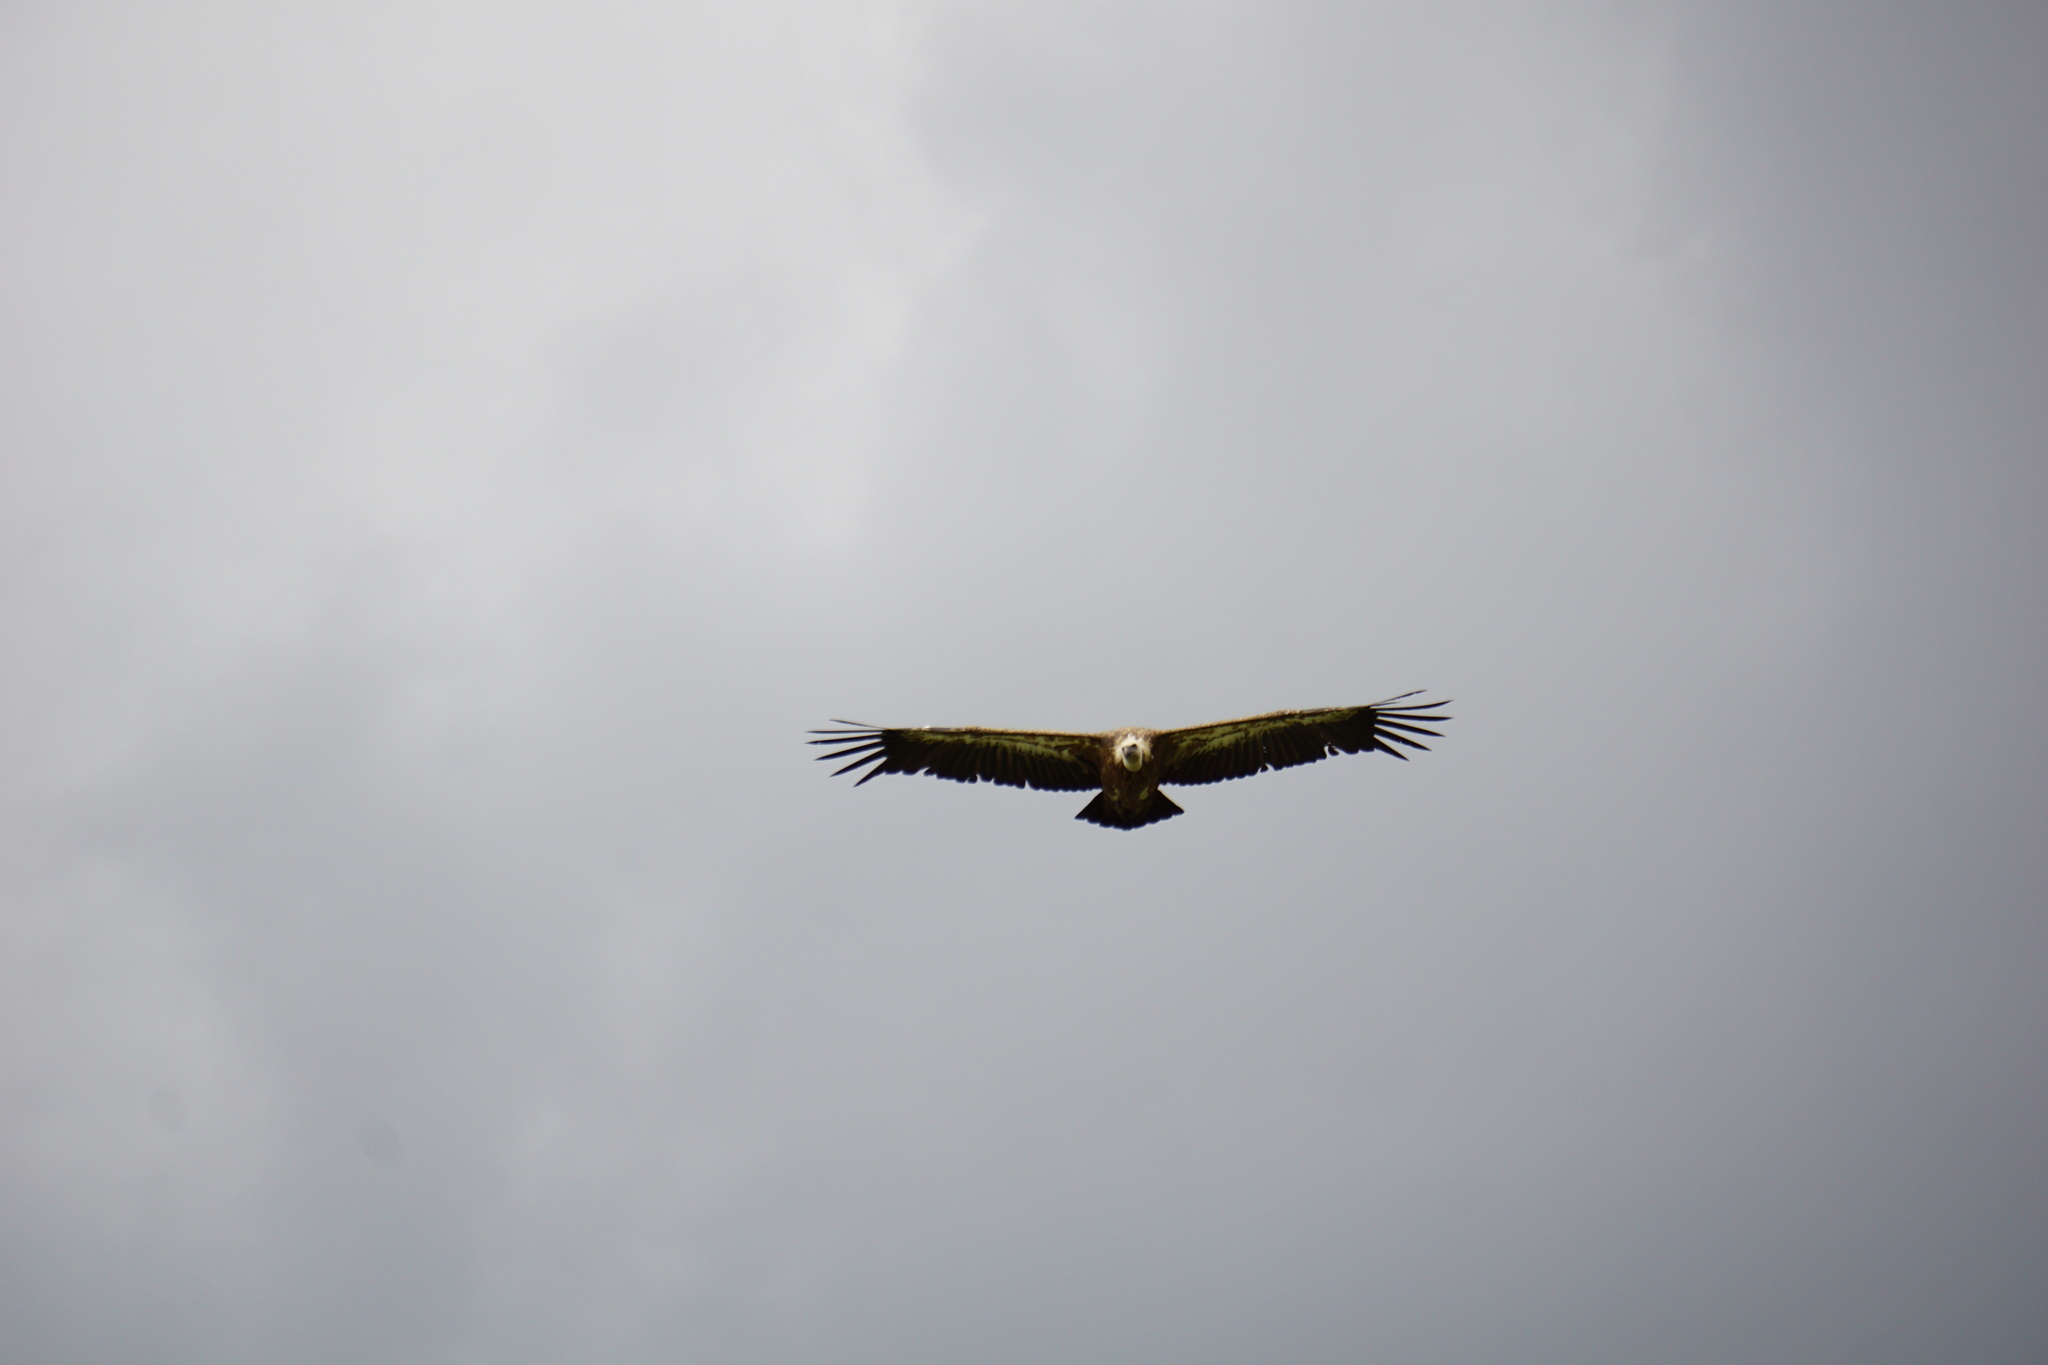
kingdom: Animalia
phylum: Chordata
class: Aves
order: Accipitriformes
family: Accipitridae
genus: Gyps
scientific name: Gyps fulvus
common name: Griffon vulture
